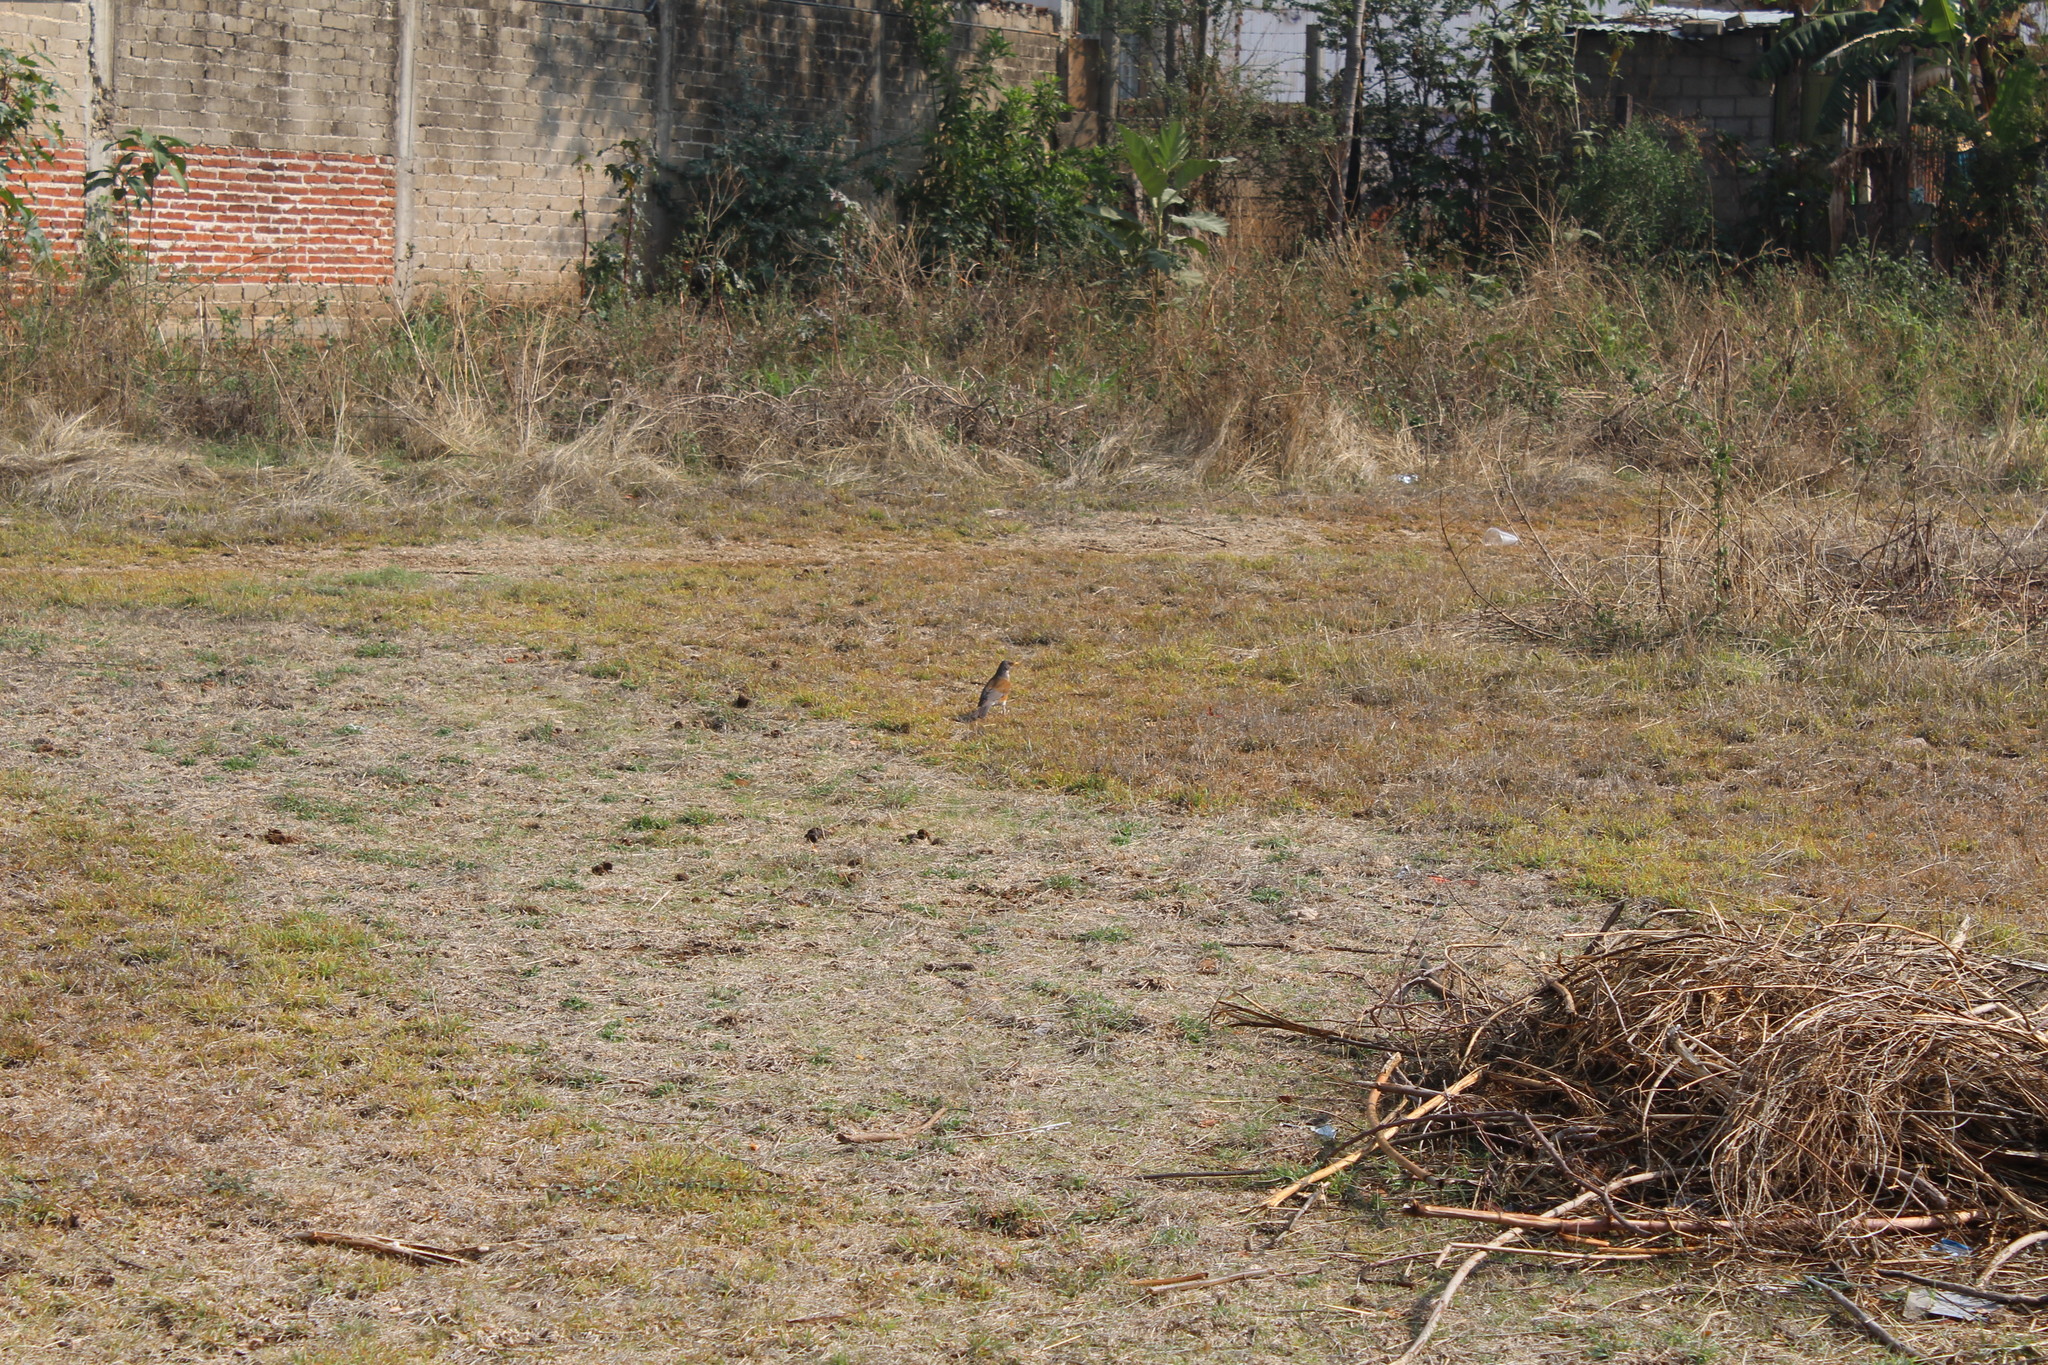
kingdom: Animalia
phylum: Chordata
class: Aves
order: Passeriformes
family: Turdidae
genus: Turdus
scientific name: Turdus rufopalliatus
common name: Rufous-backed robin
